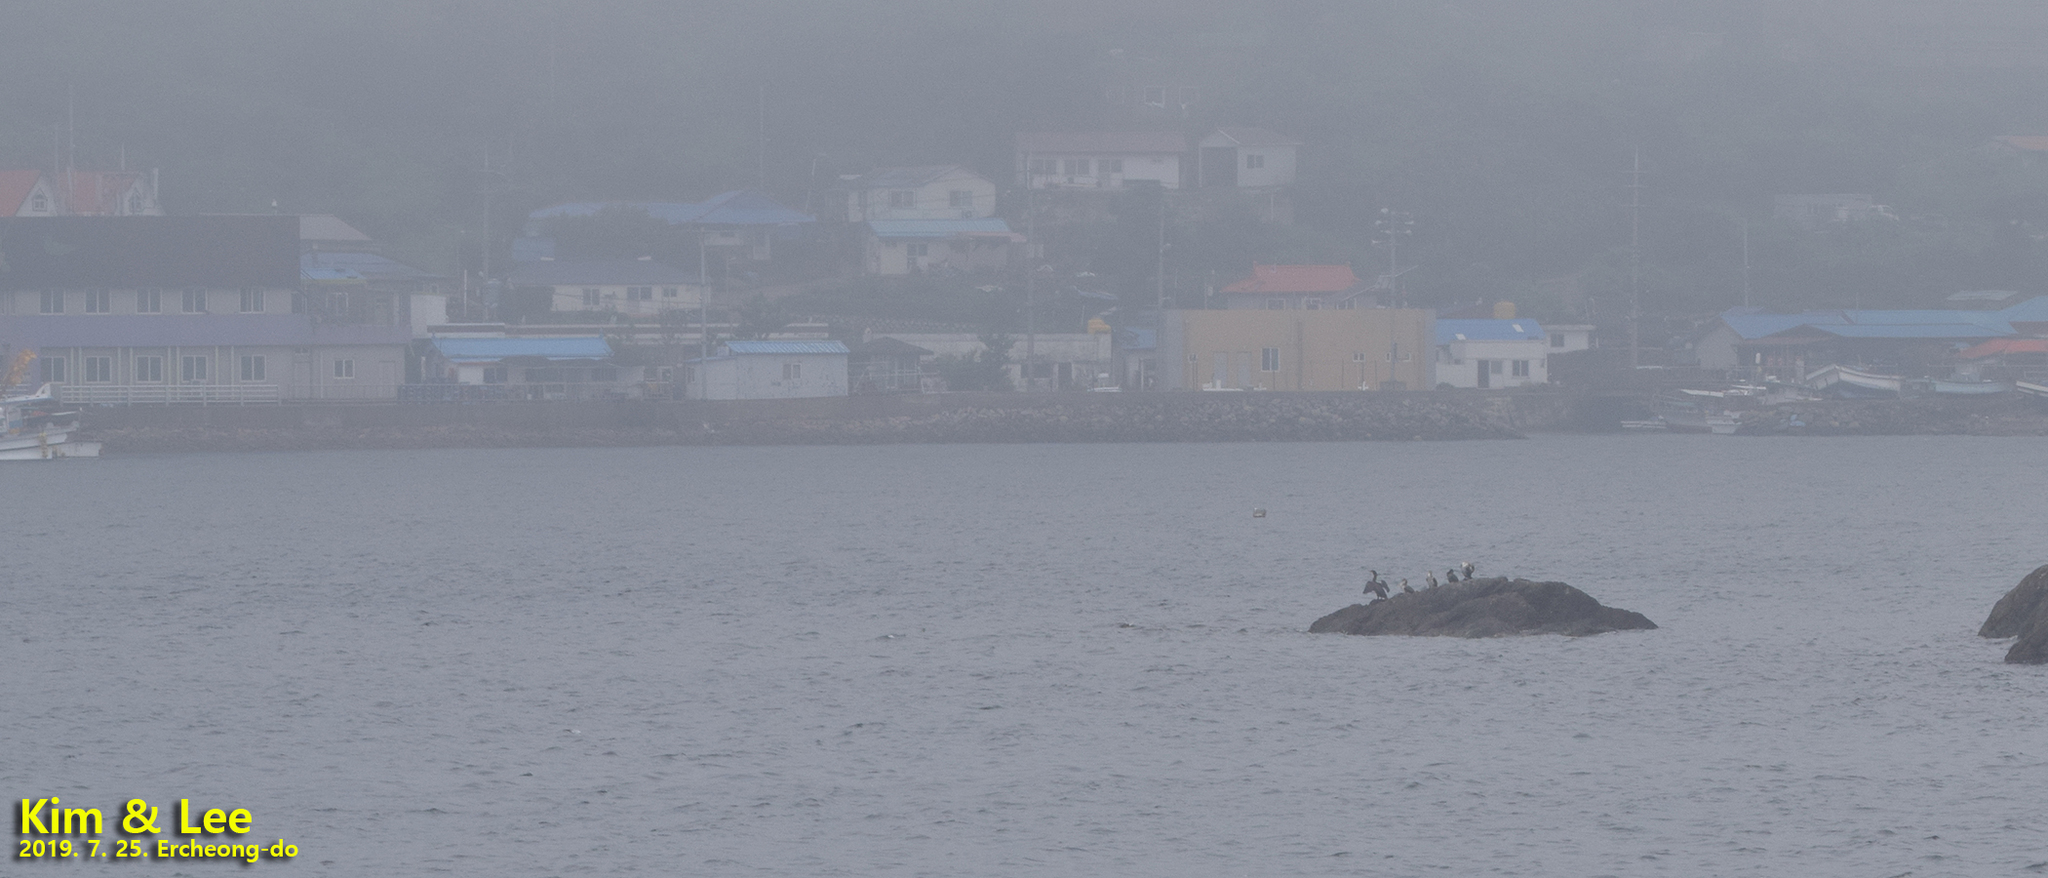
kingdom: Animalia
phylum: Chordata
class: Aves
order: Suliformes
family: Phalacrocoracidae
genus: Phalacrocorax
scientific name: Phalacrocorax capillatus
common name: Japanese cormorant
